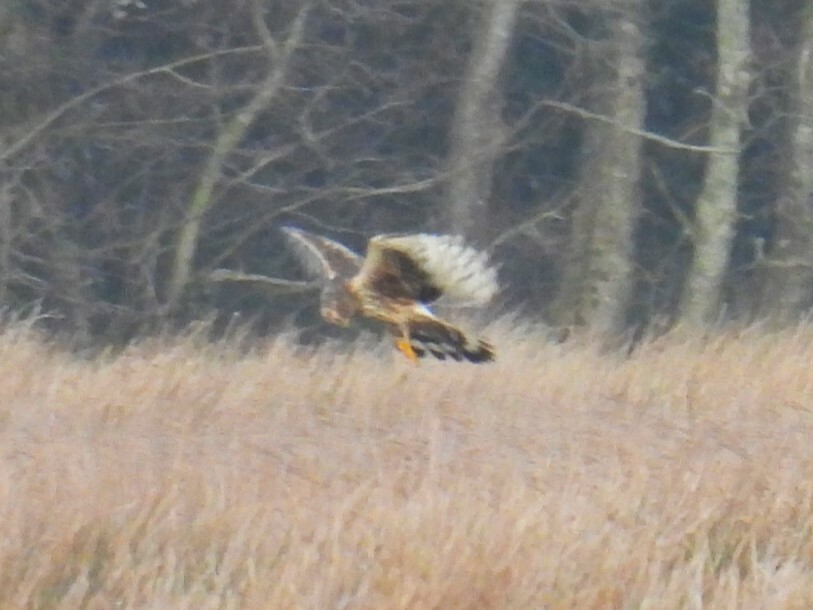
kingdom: Animalia
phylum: Chordata
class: Aves
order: Accipitriformes
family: Accipitridae
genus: Circus
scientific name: Circus cyaneus
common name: Hen harrier
